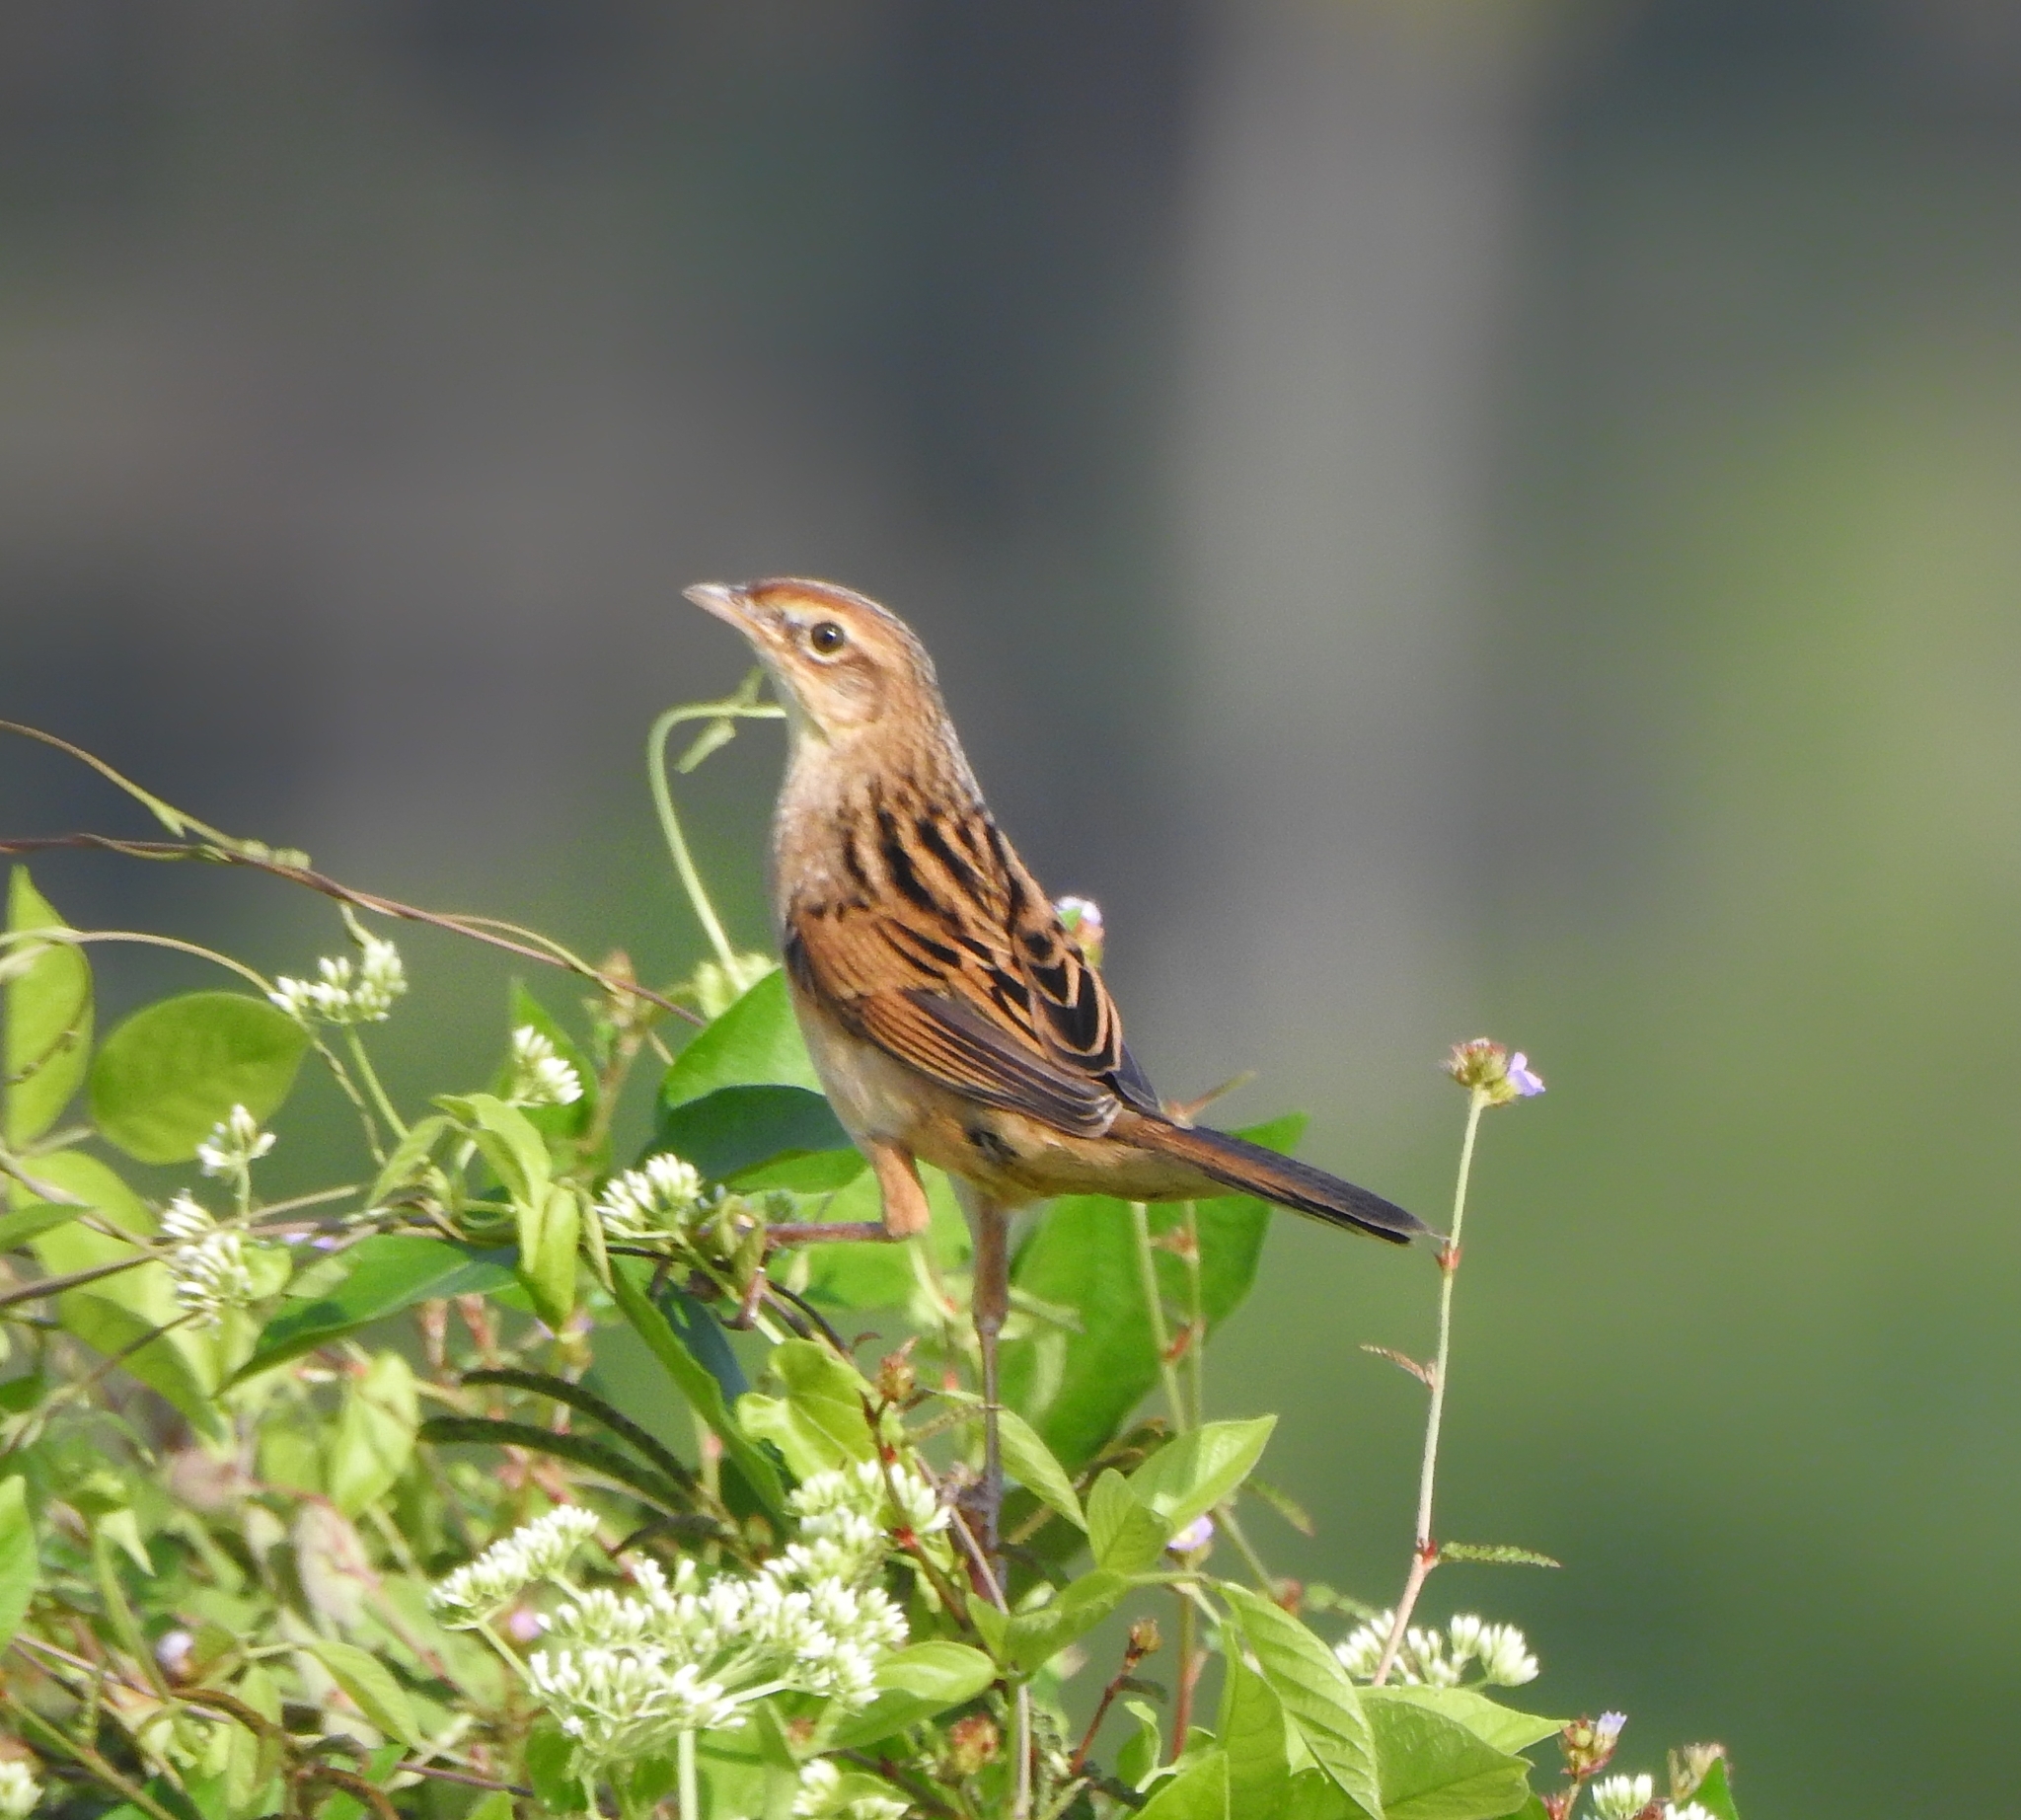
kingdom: Animalia
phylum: Chordata
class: Aves
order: Passeriformes
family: Locustellidae
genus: Chaetornis
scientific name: Chaetornis striata
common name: Bristled grassbird
